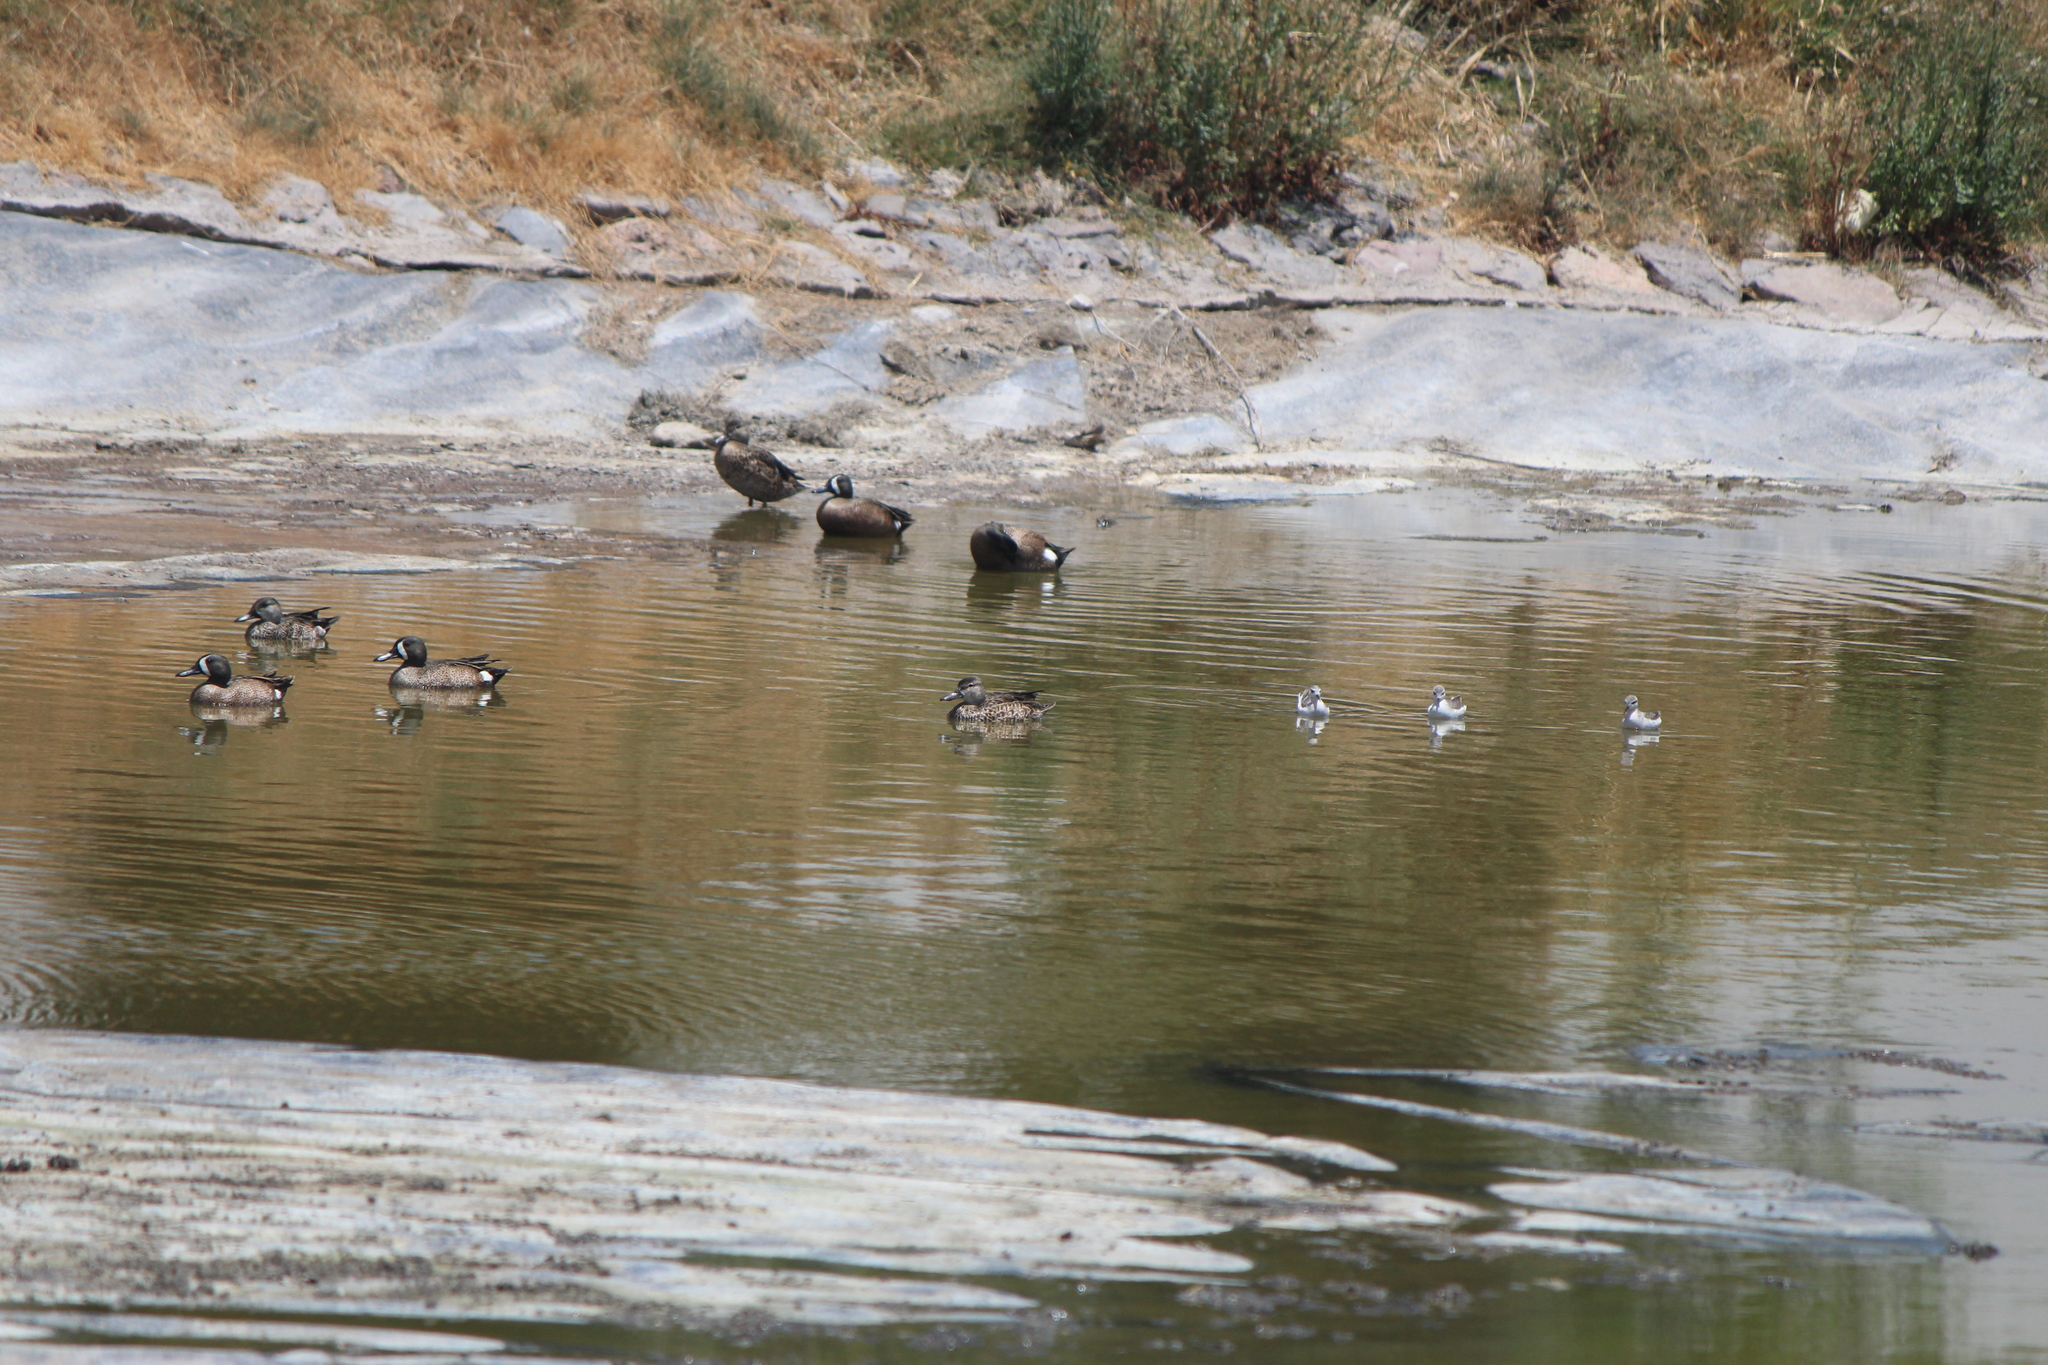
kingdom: Animalia
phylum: Chordata
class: Aves
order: Anseriformes
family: Anatidae
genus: Spatula
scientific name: Spatula discors
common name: Blue-winged teal
